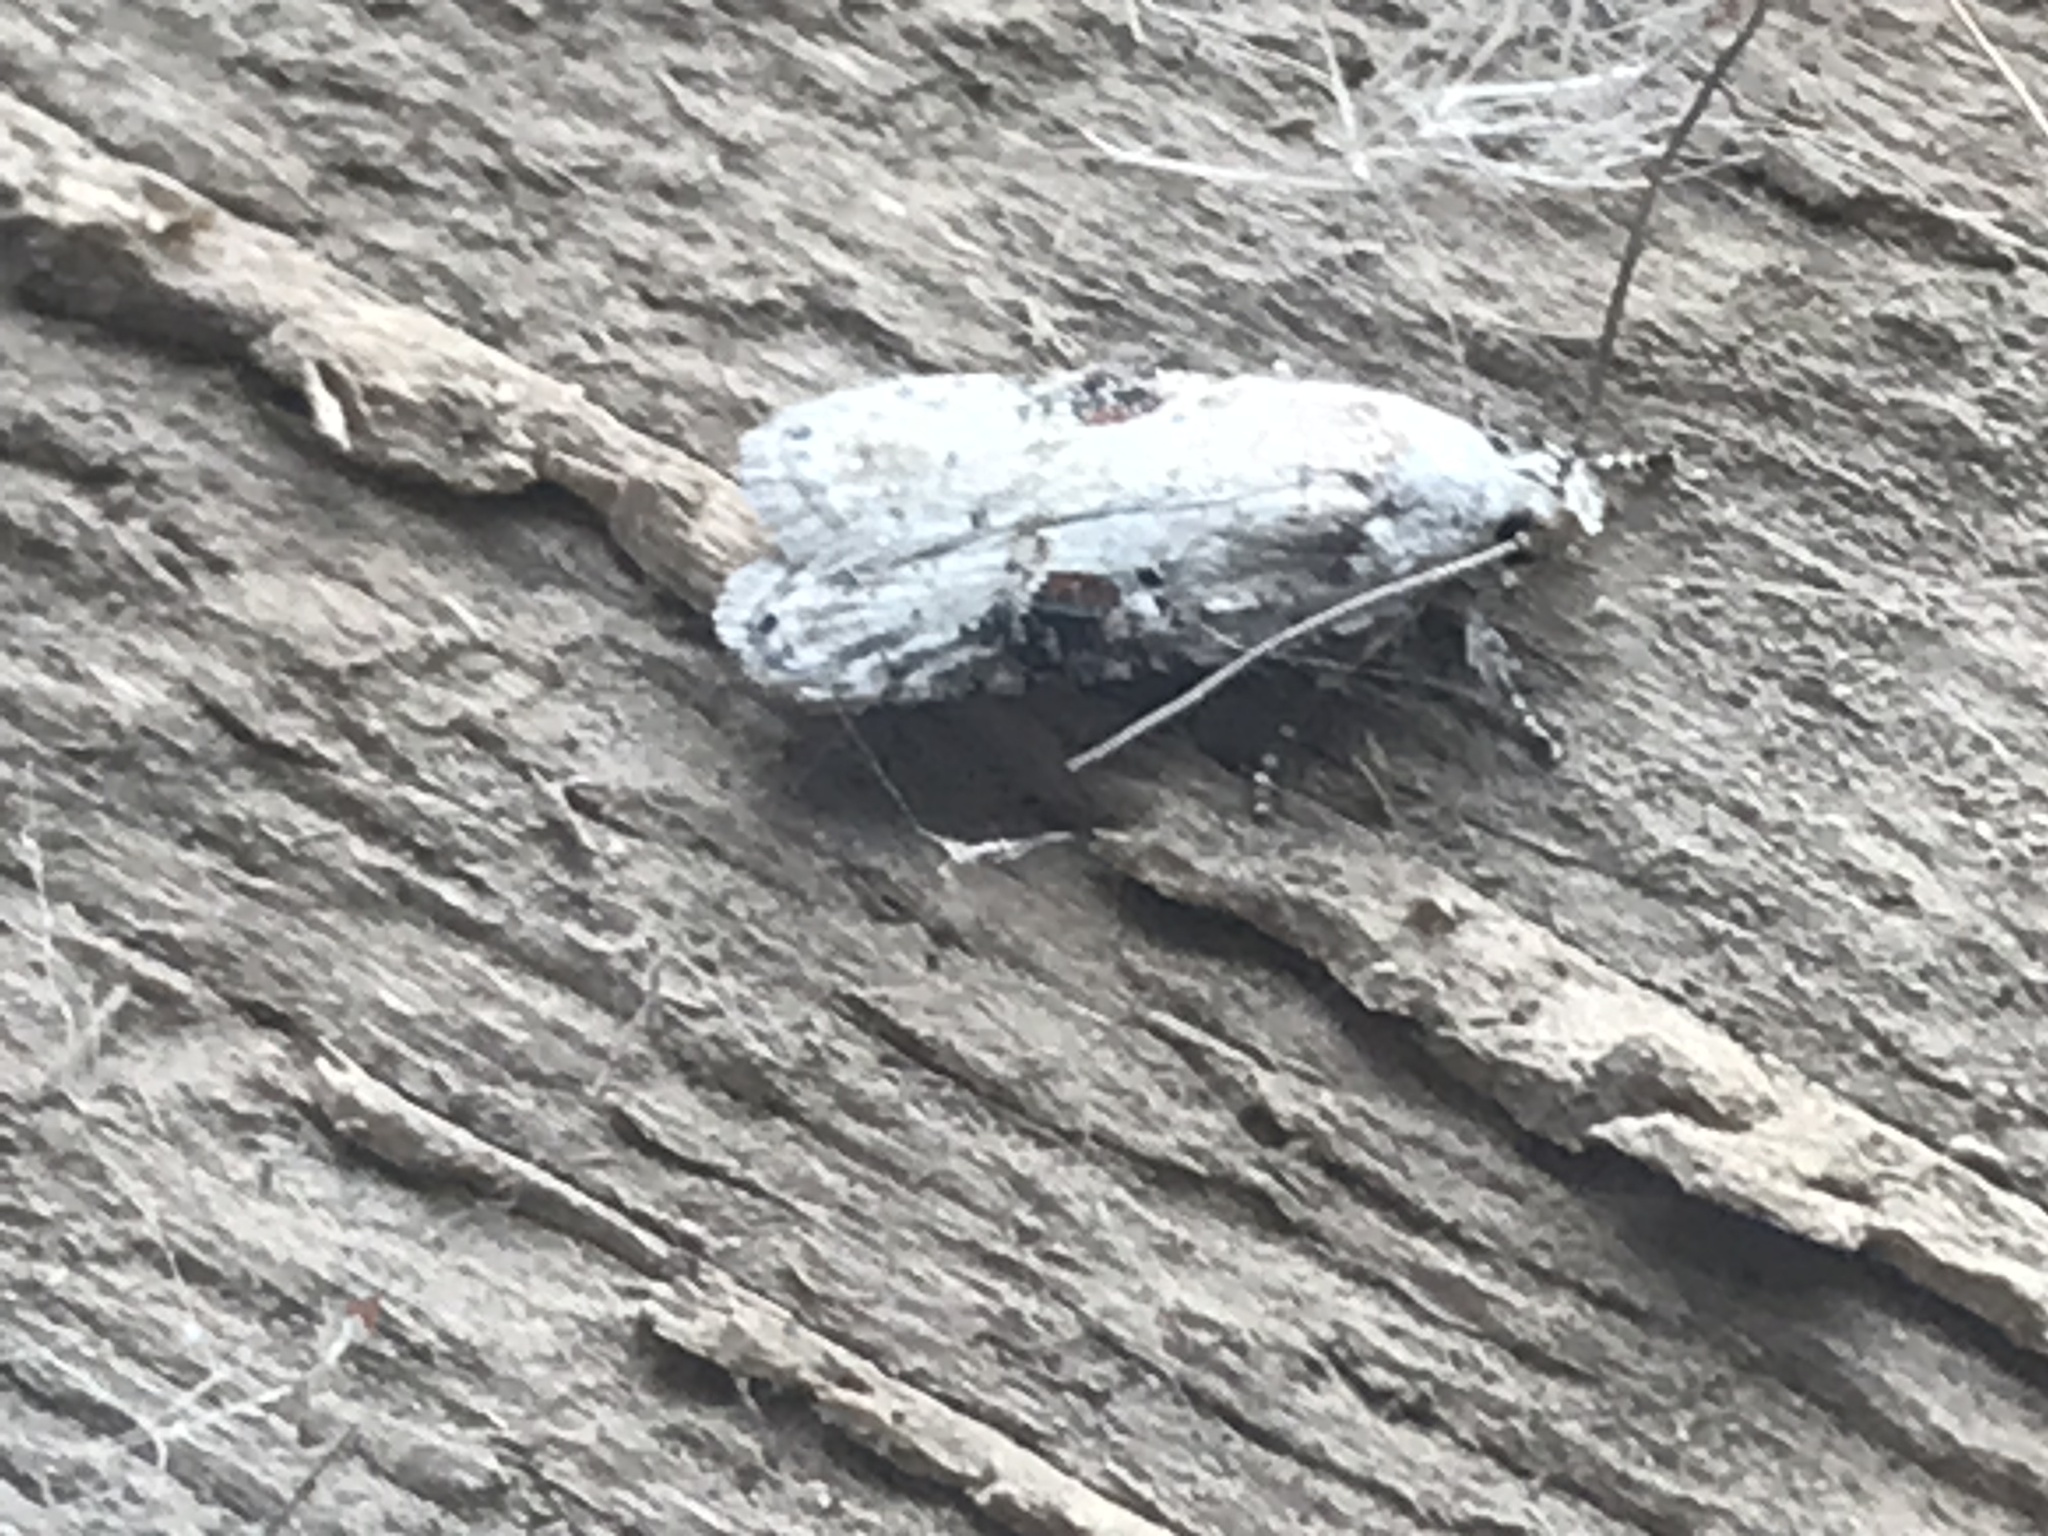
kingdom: Animalia
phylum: Arthropoda
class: Insecta
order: Lepidoptera
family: Depressariidae
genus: Agonopterix
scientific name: Agonopterix alstroemeriana
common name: Moth
